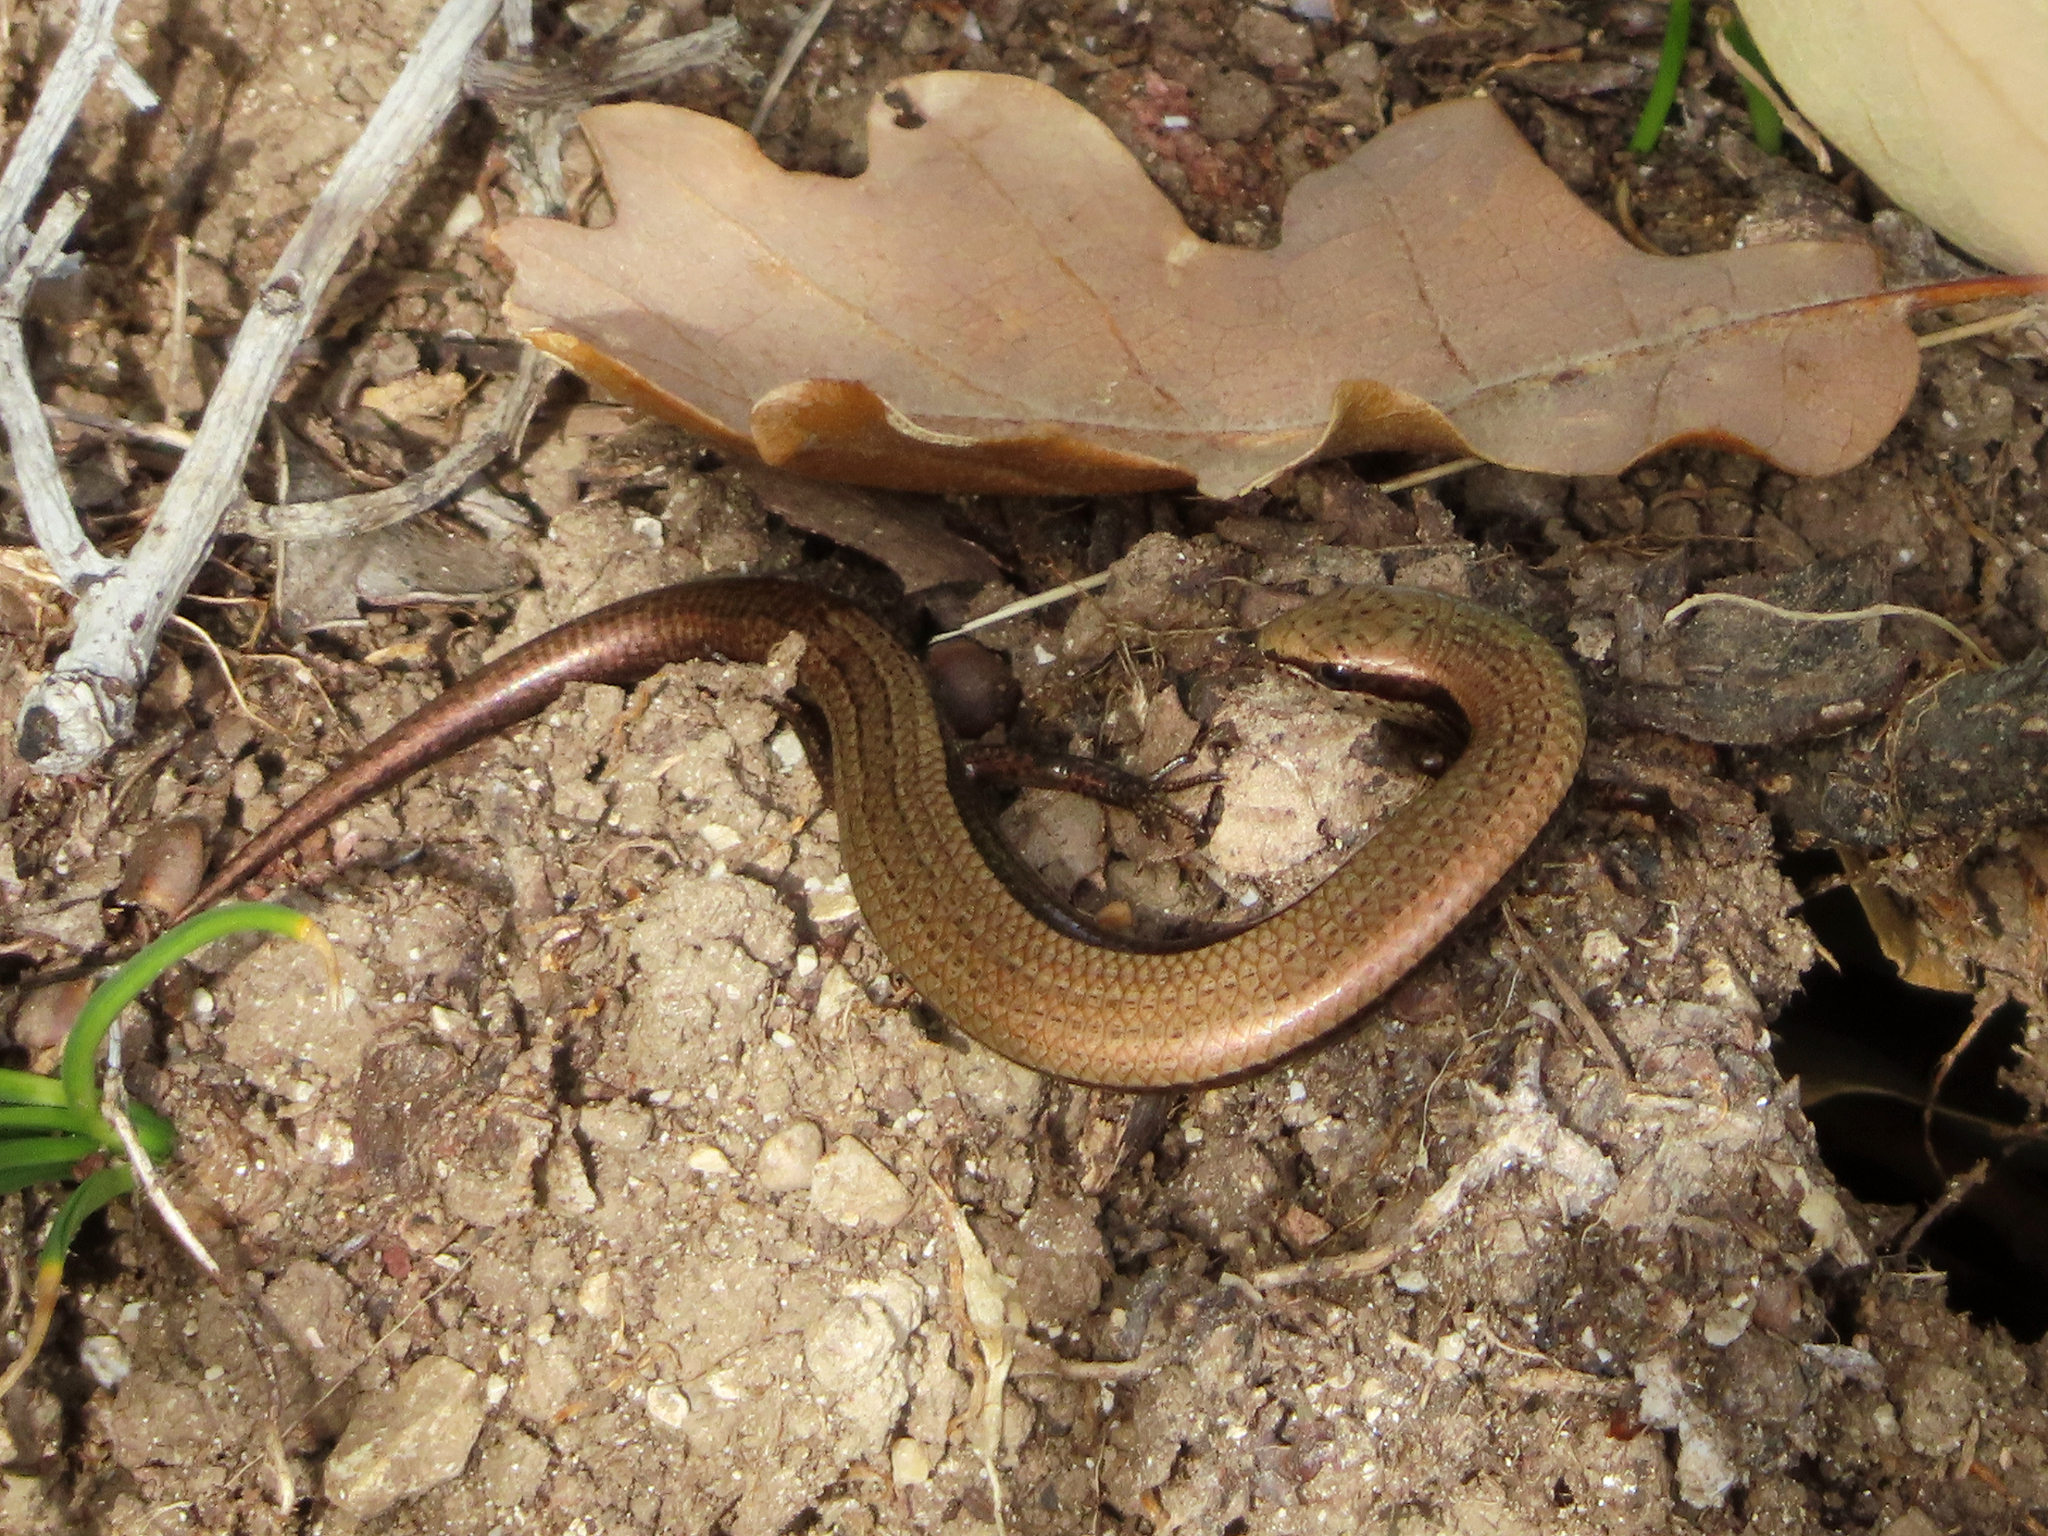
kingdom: Animalia
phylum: Chordata
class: Squamata
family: Scincidae
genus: Ablepharus
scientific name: Ablepharus kitaibelii
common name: Juniper skink
